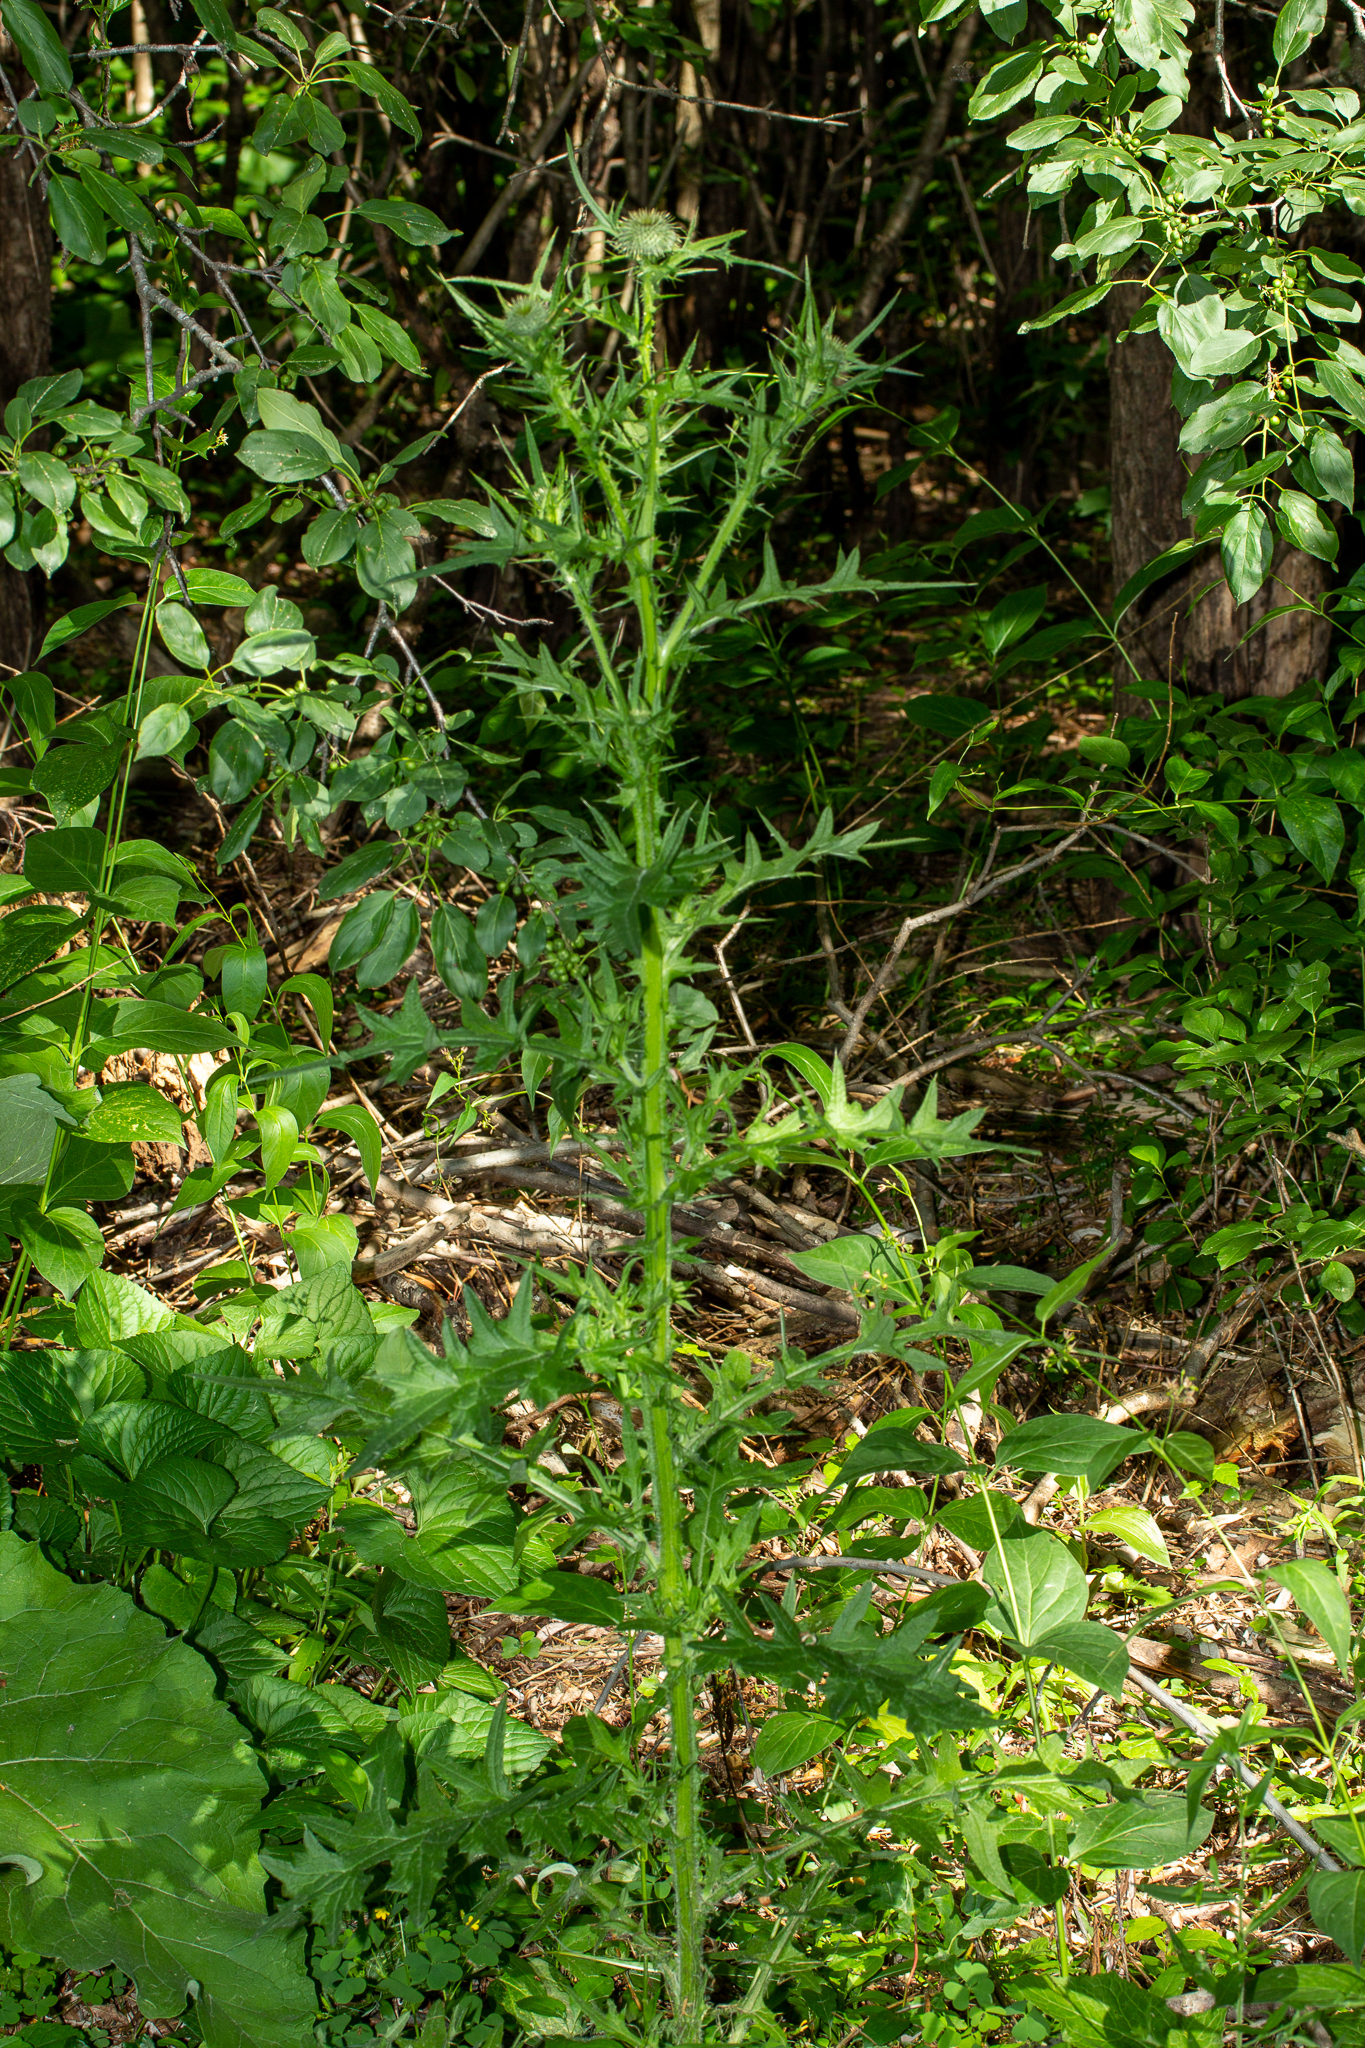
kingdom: Plantae
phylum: Tracheophyta
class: Magnoliopsida
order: Asterales
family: Asteraceae
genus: Cirsium
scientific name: Cirsium vulgare
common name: Bull thistle
